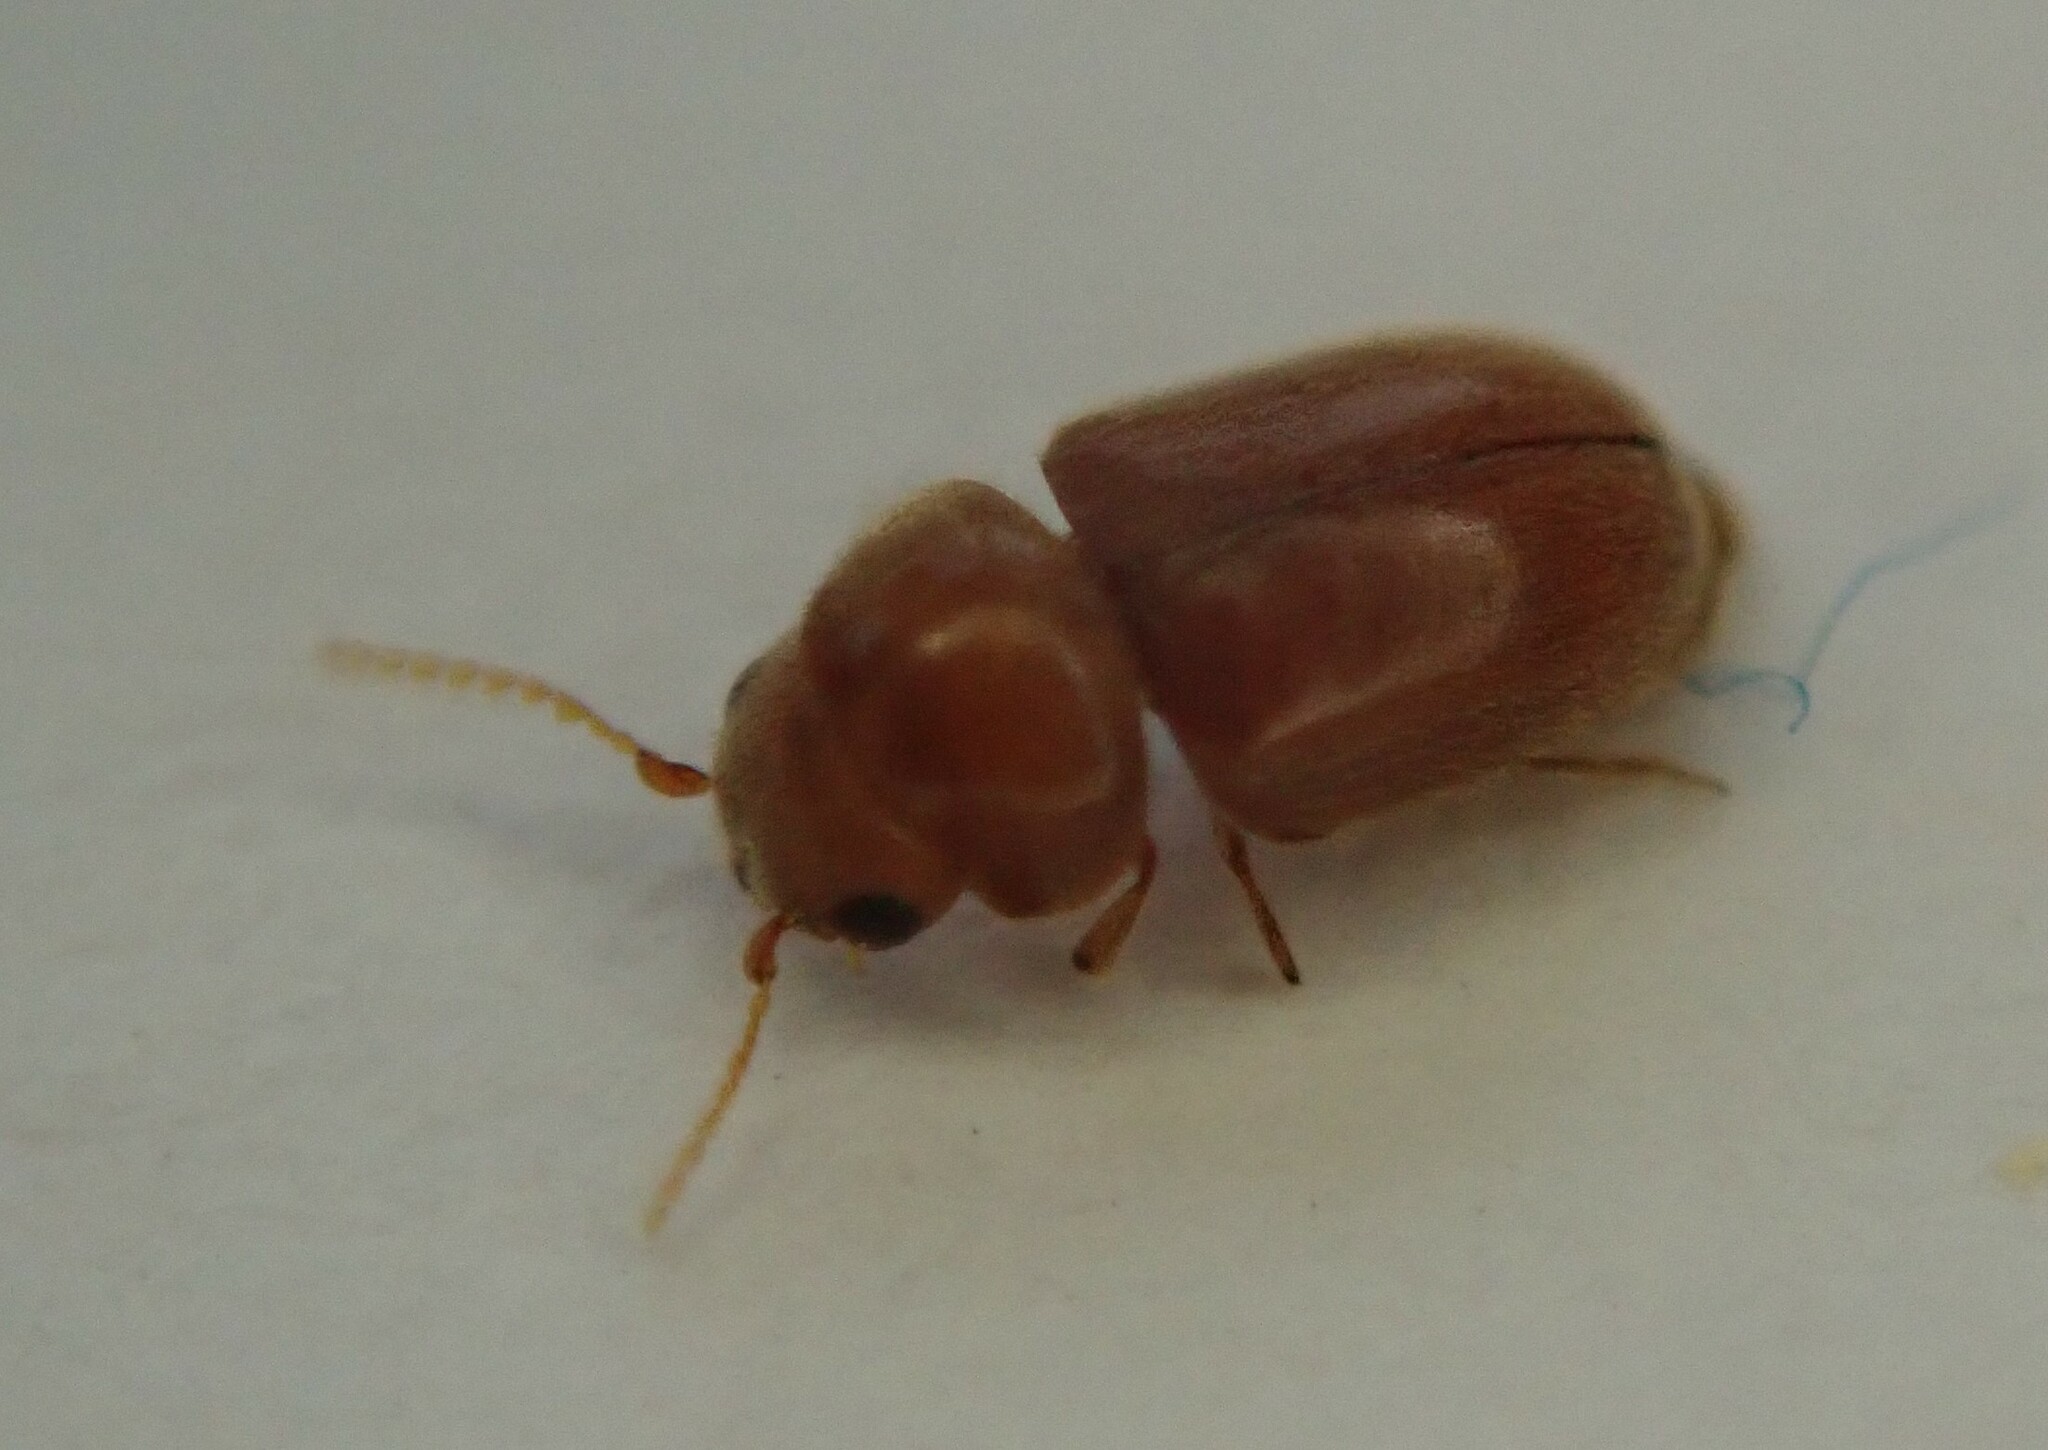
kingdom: Animalia
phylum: Arthropoda
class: Insecta
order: Coleoptera
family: Anobiidae
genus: Lasioderma
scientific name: Lasioderma serricorne
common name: Cigarette beetle
